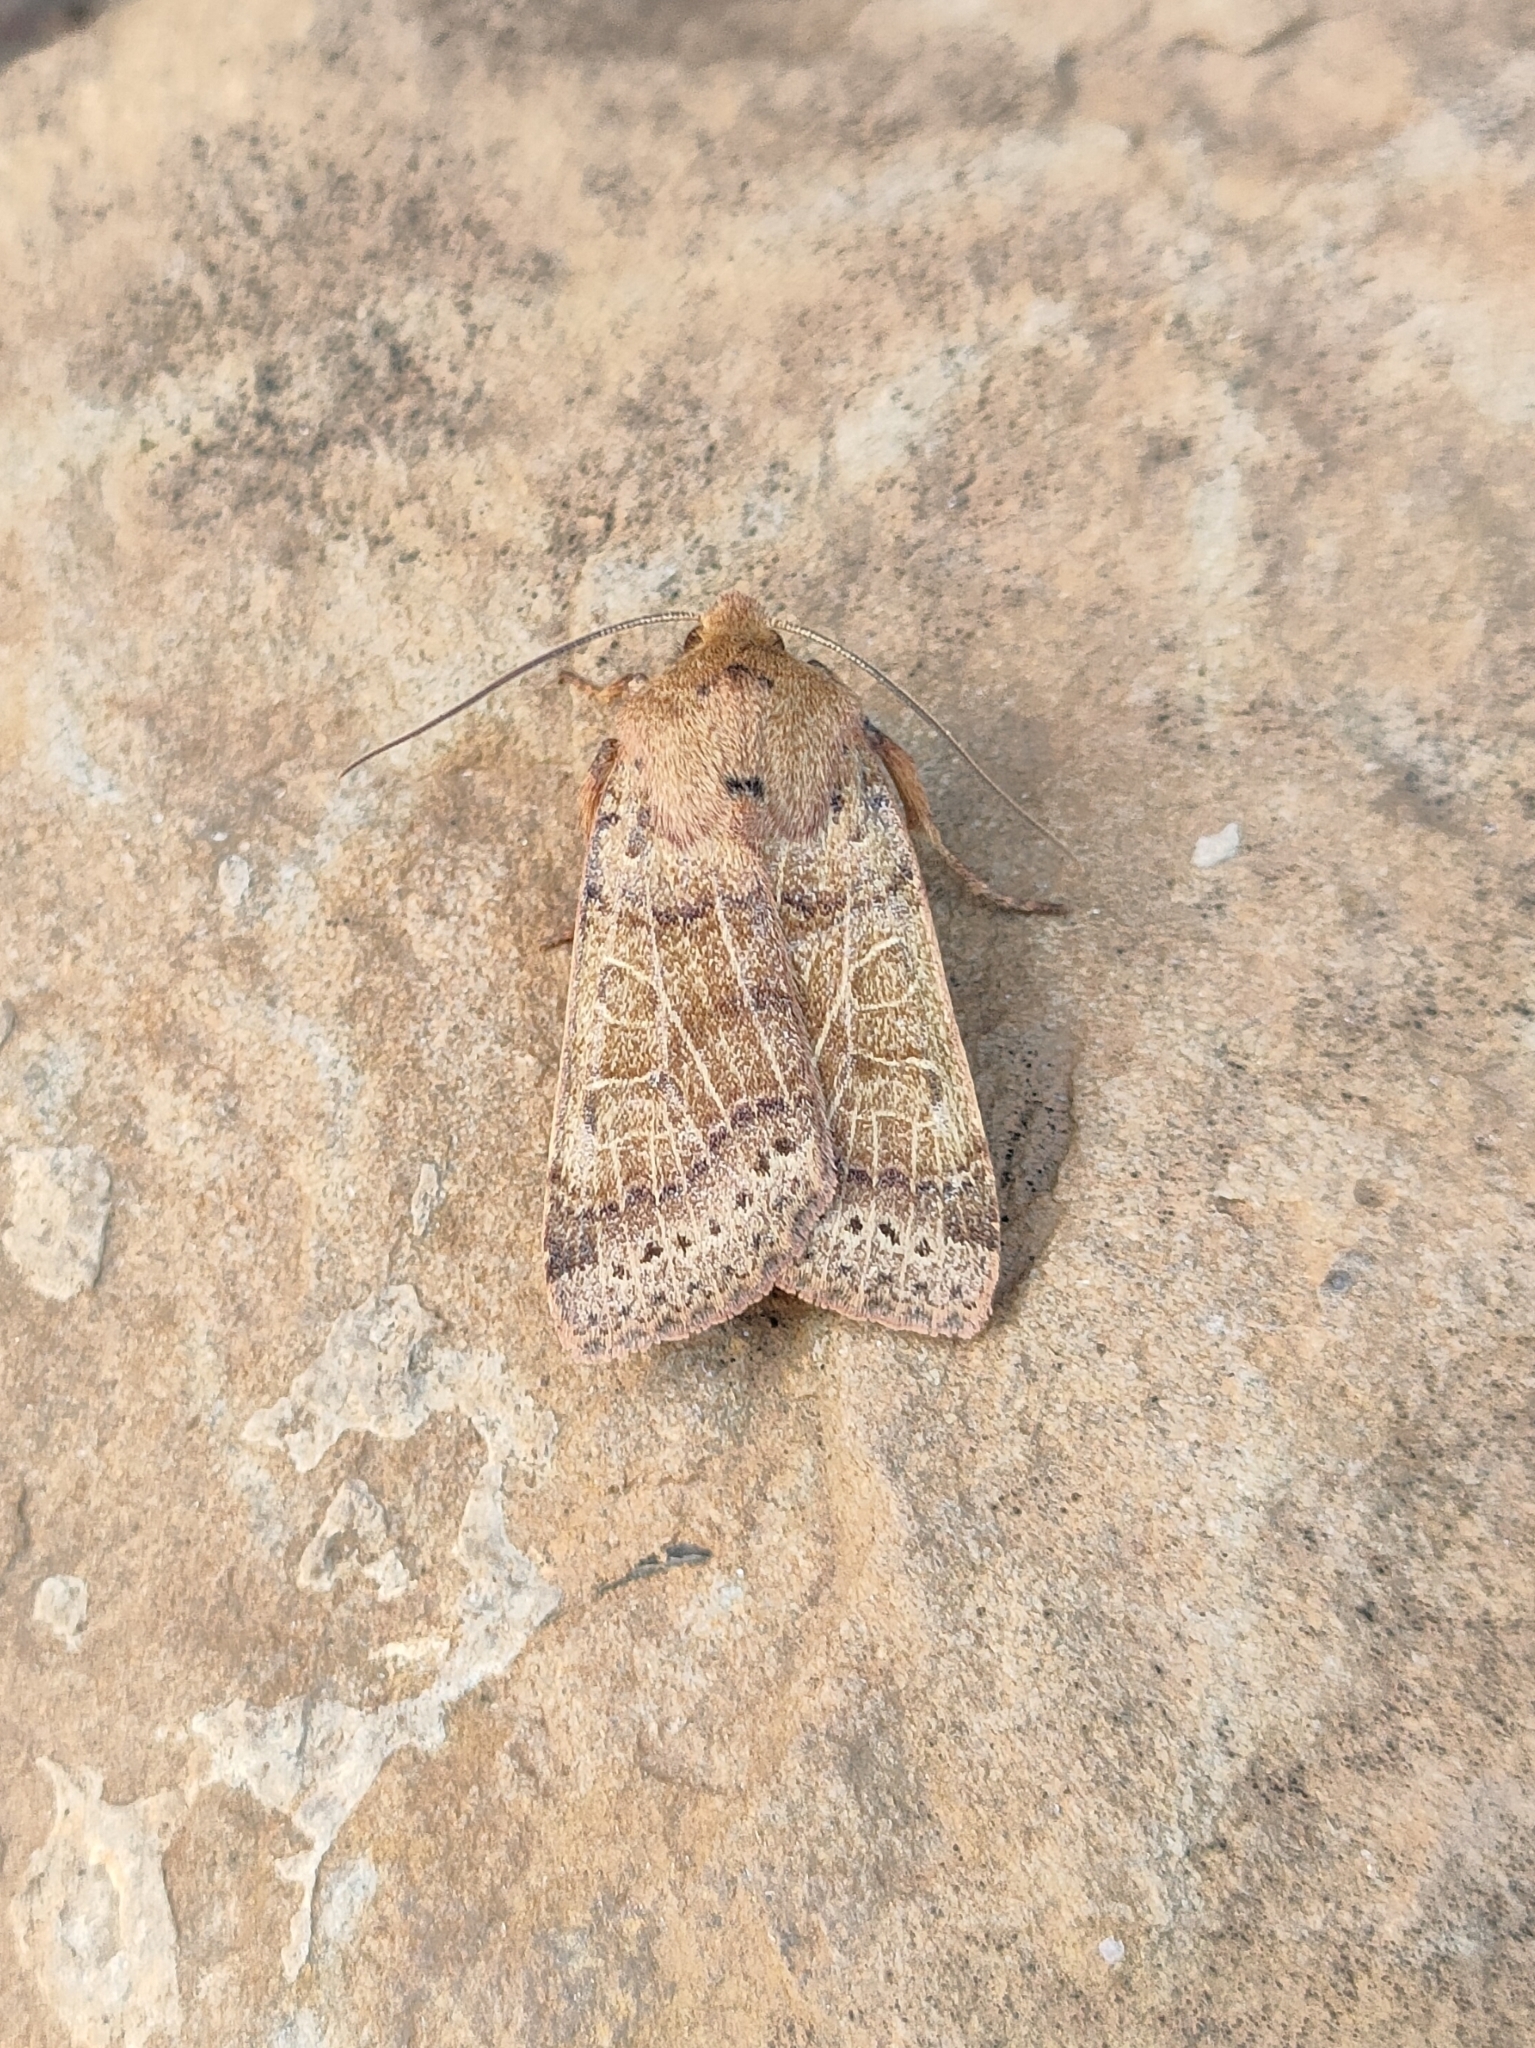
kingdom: Animalia
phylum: Arthropoda
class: Insecta
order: Lepidoptera
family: Noctuidae
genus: Agrochola
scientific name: Agrochola pistacinoides
